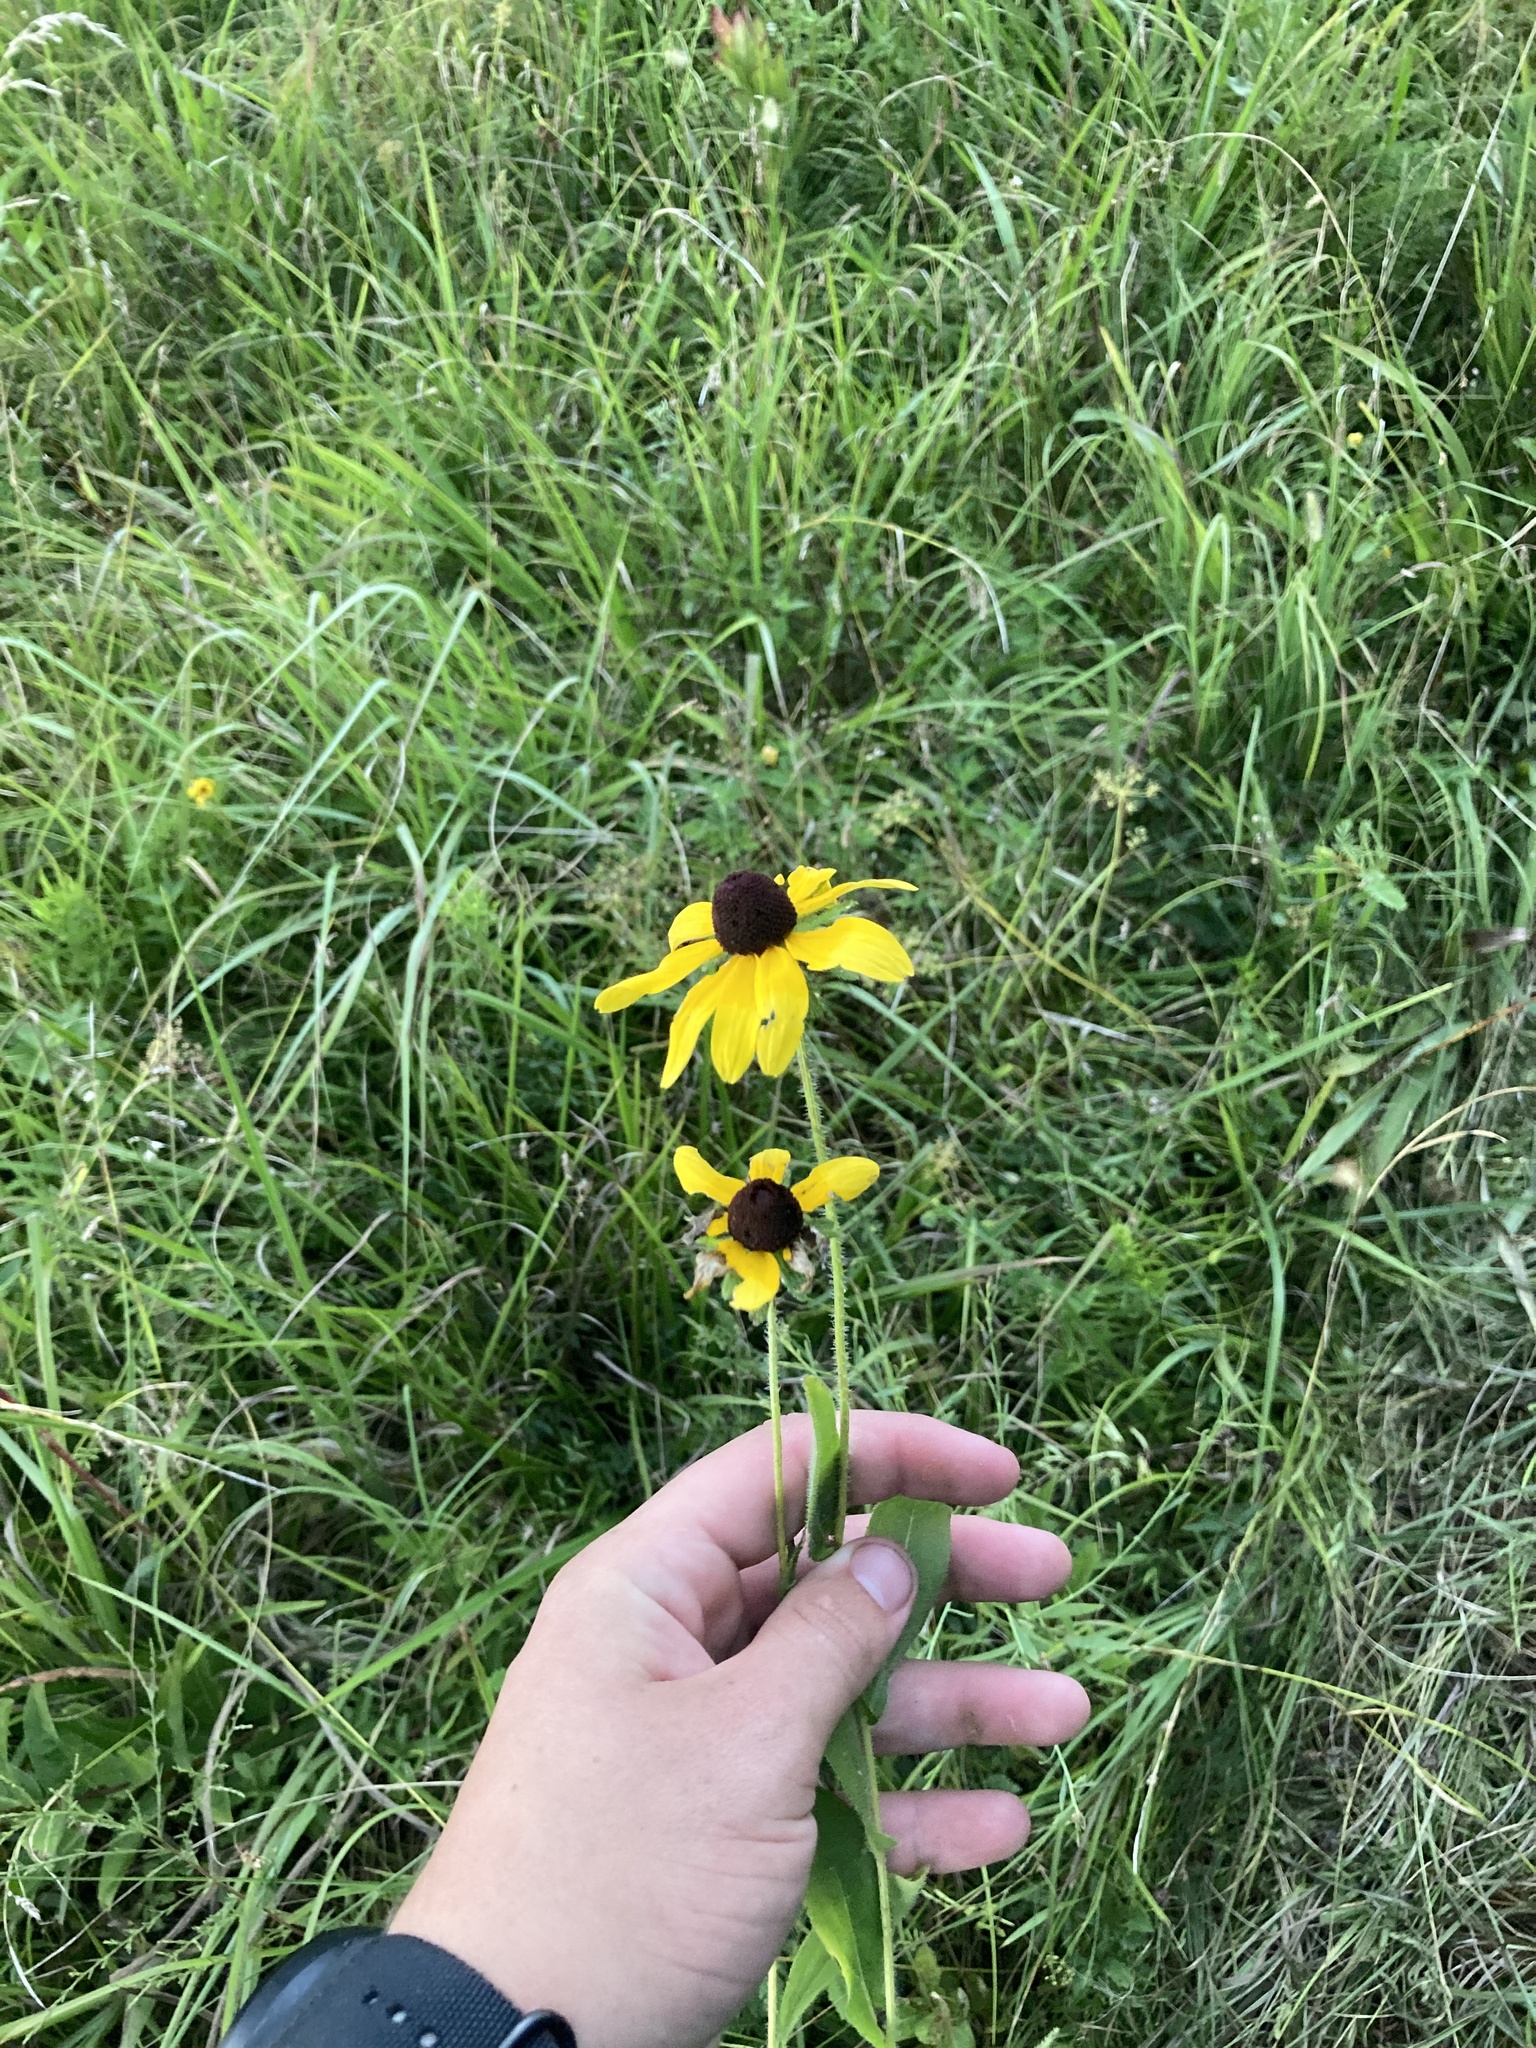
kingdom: Plantae
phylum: Tracheophyta
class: Magnoliopsida
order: Asterales
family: Asteraceae
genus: Rudbeckia
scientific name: Rudbeckia hirta
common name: Black-eyed-susan
